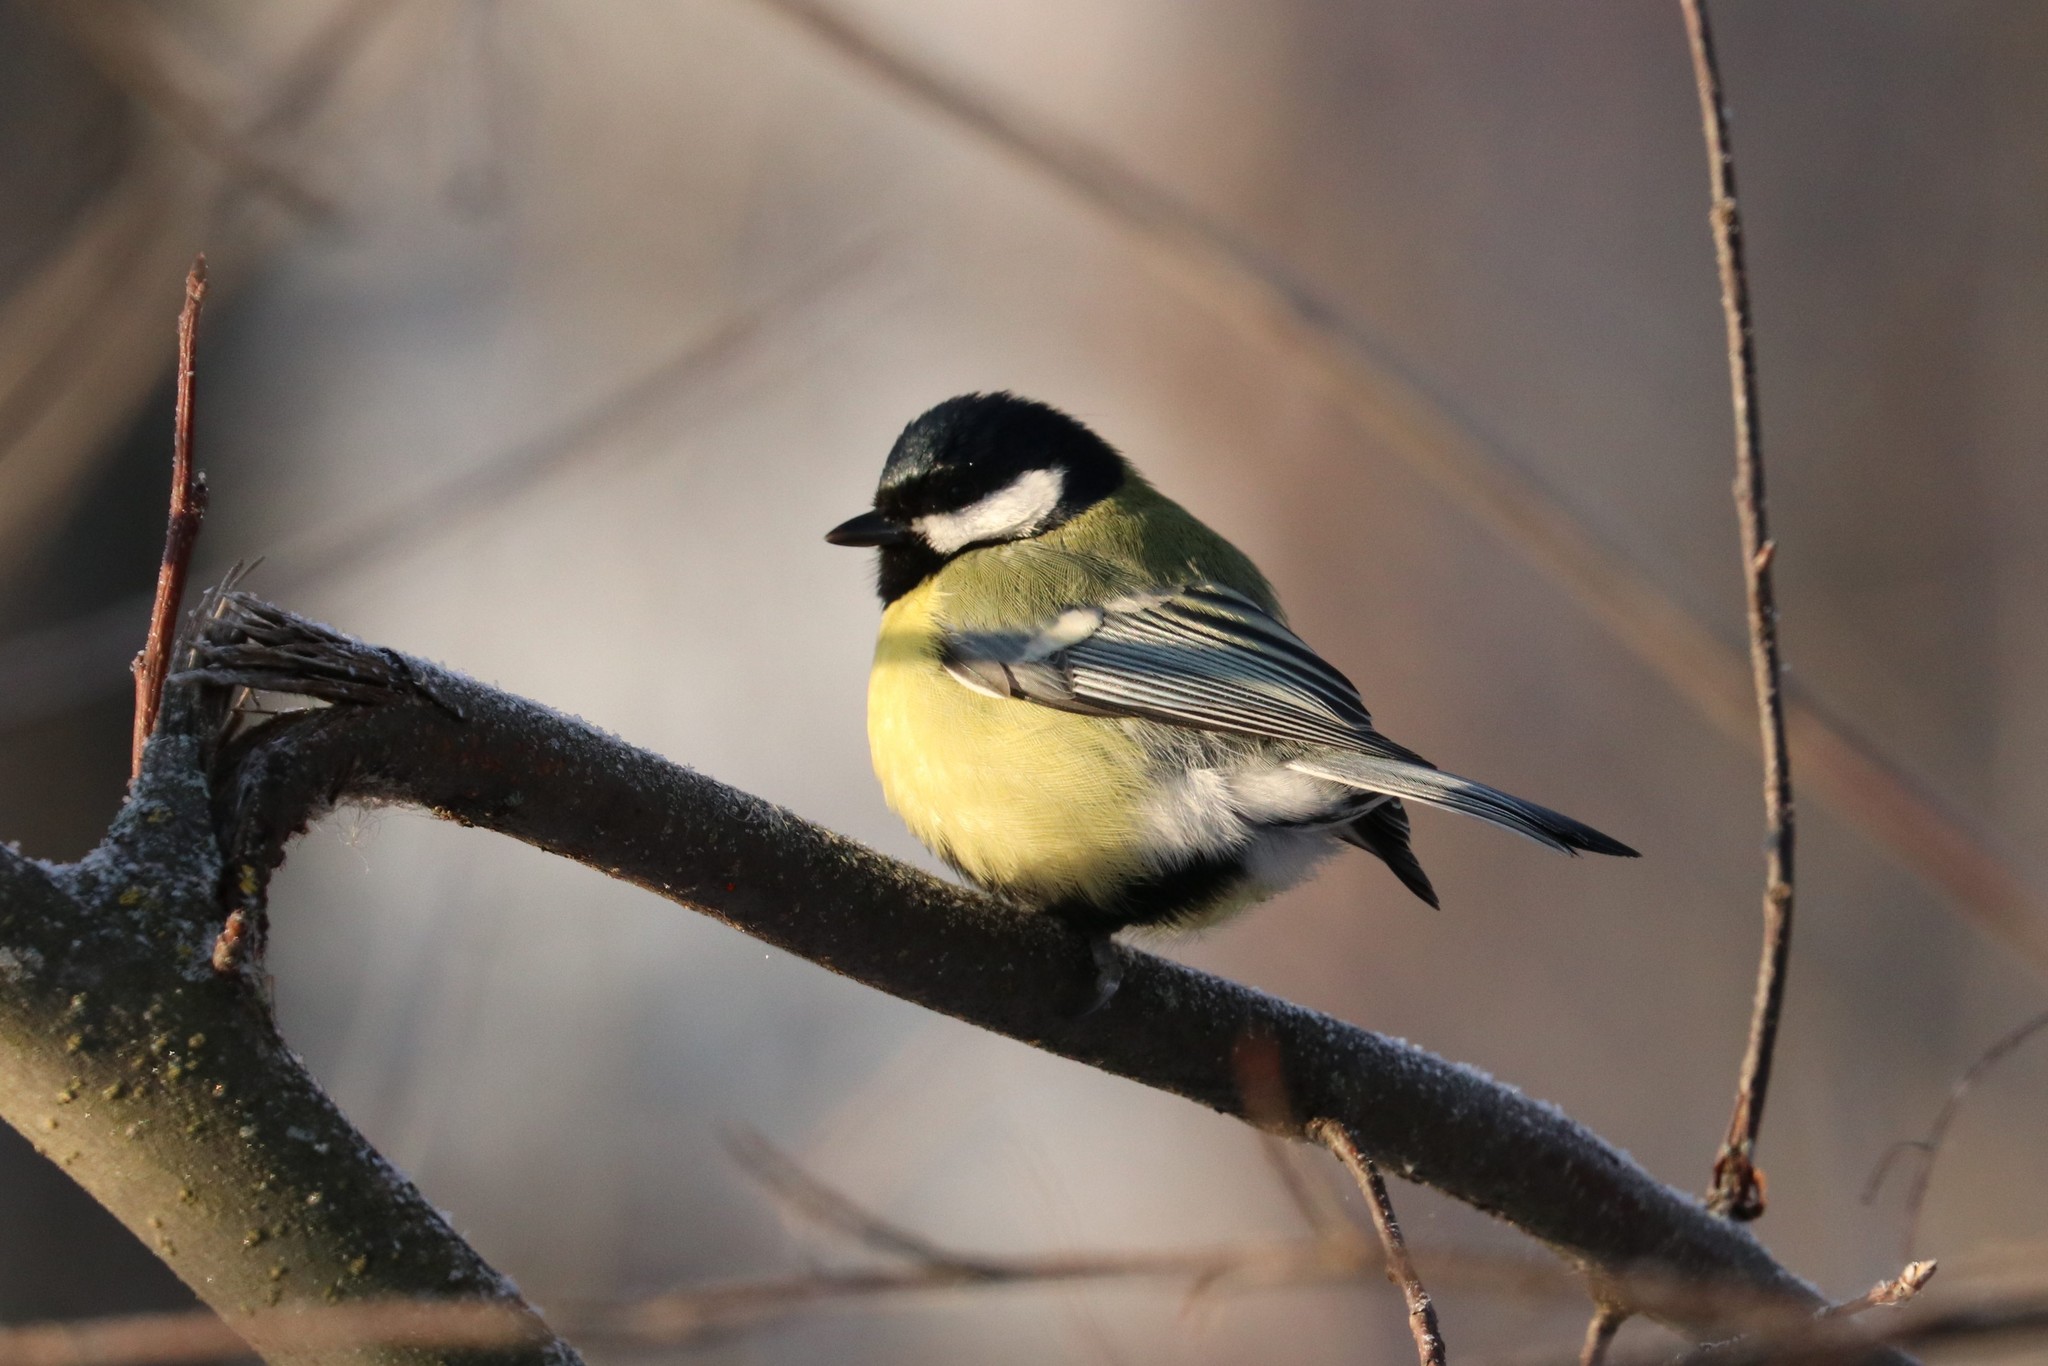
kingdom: Animalia
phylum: Chordata
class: Aves
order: Passeriformes
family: Paridae
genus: Parus
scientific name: Parus major
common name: Great tit
